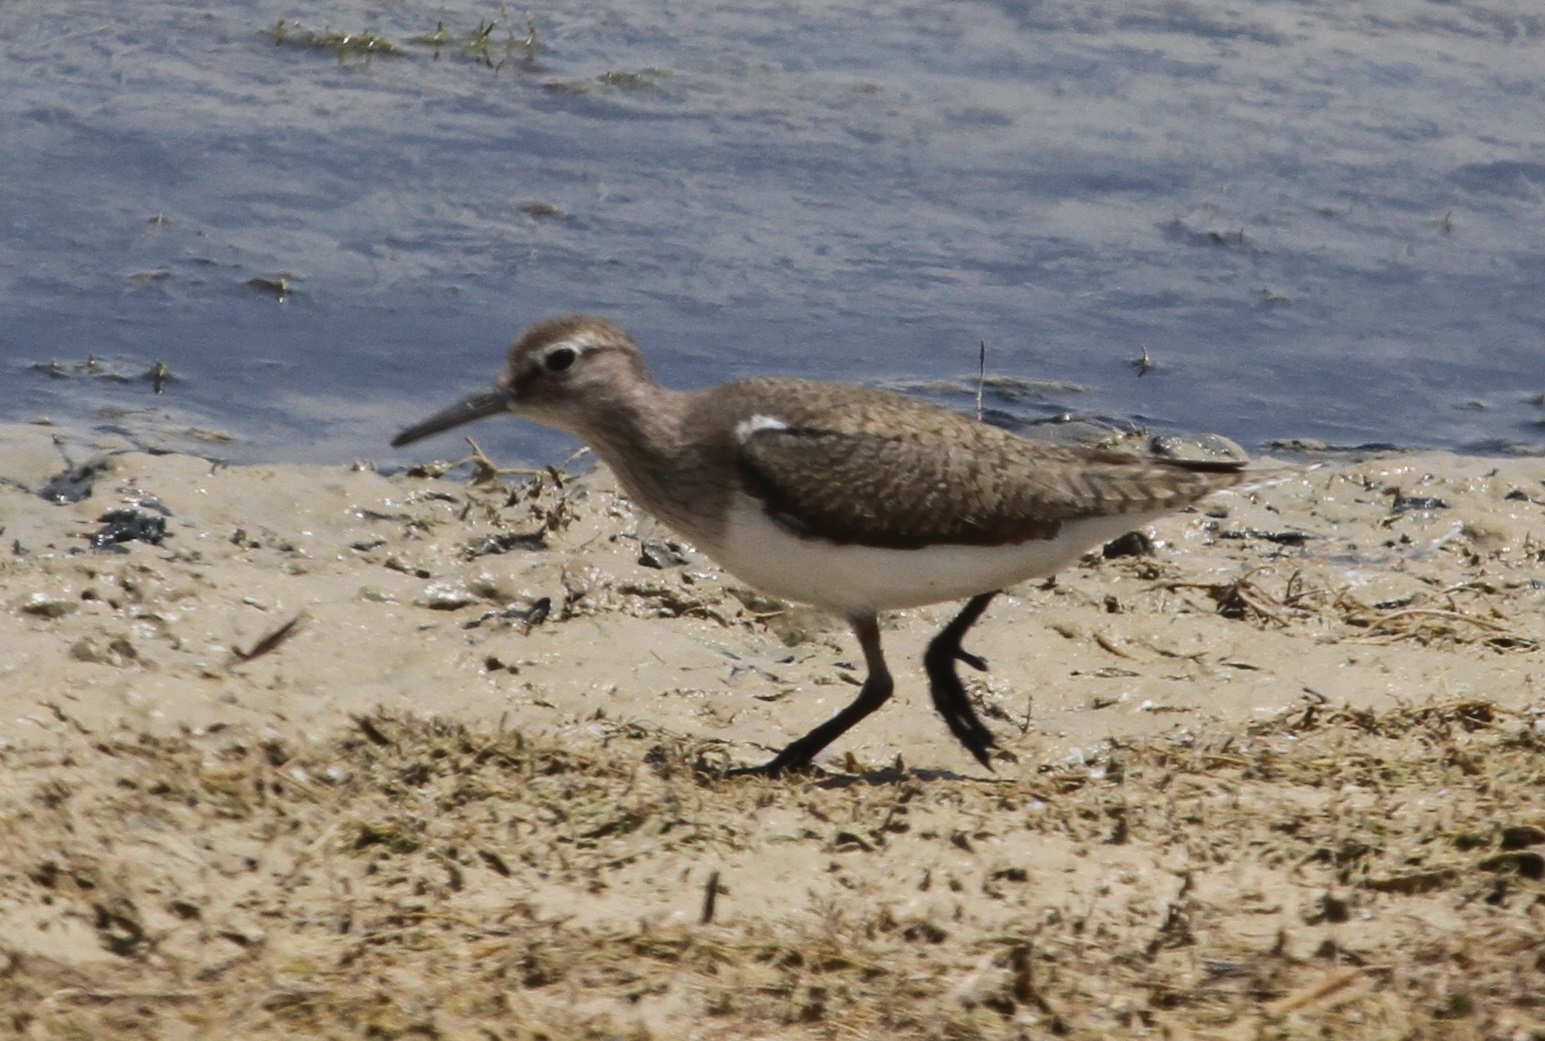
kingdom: Animalia
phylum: Chordata
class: Aves
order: Charadriiformes
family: Scolopacidae
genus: Actitis
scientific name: Actitis hypoleucos
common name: Common sandpiper
